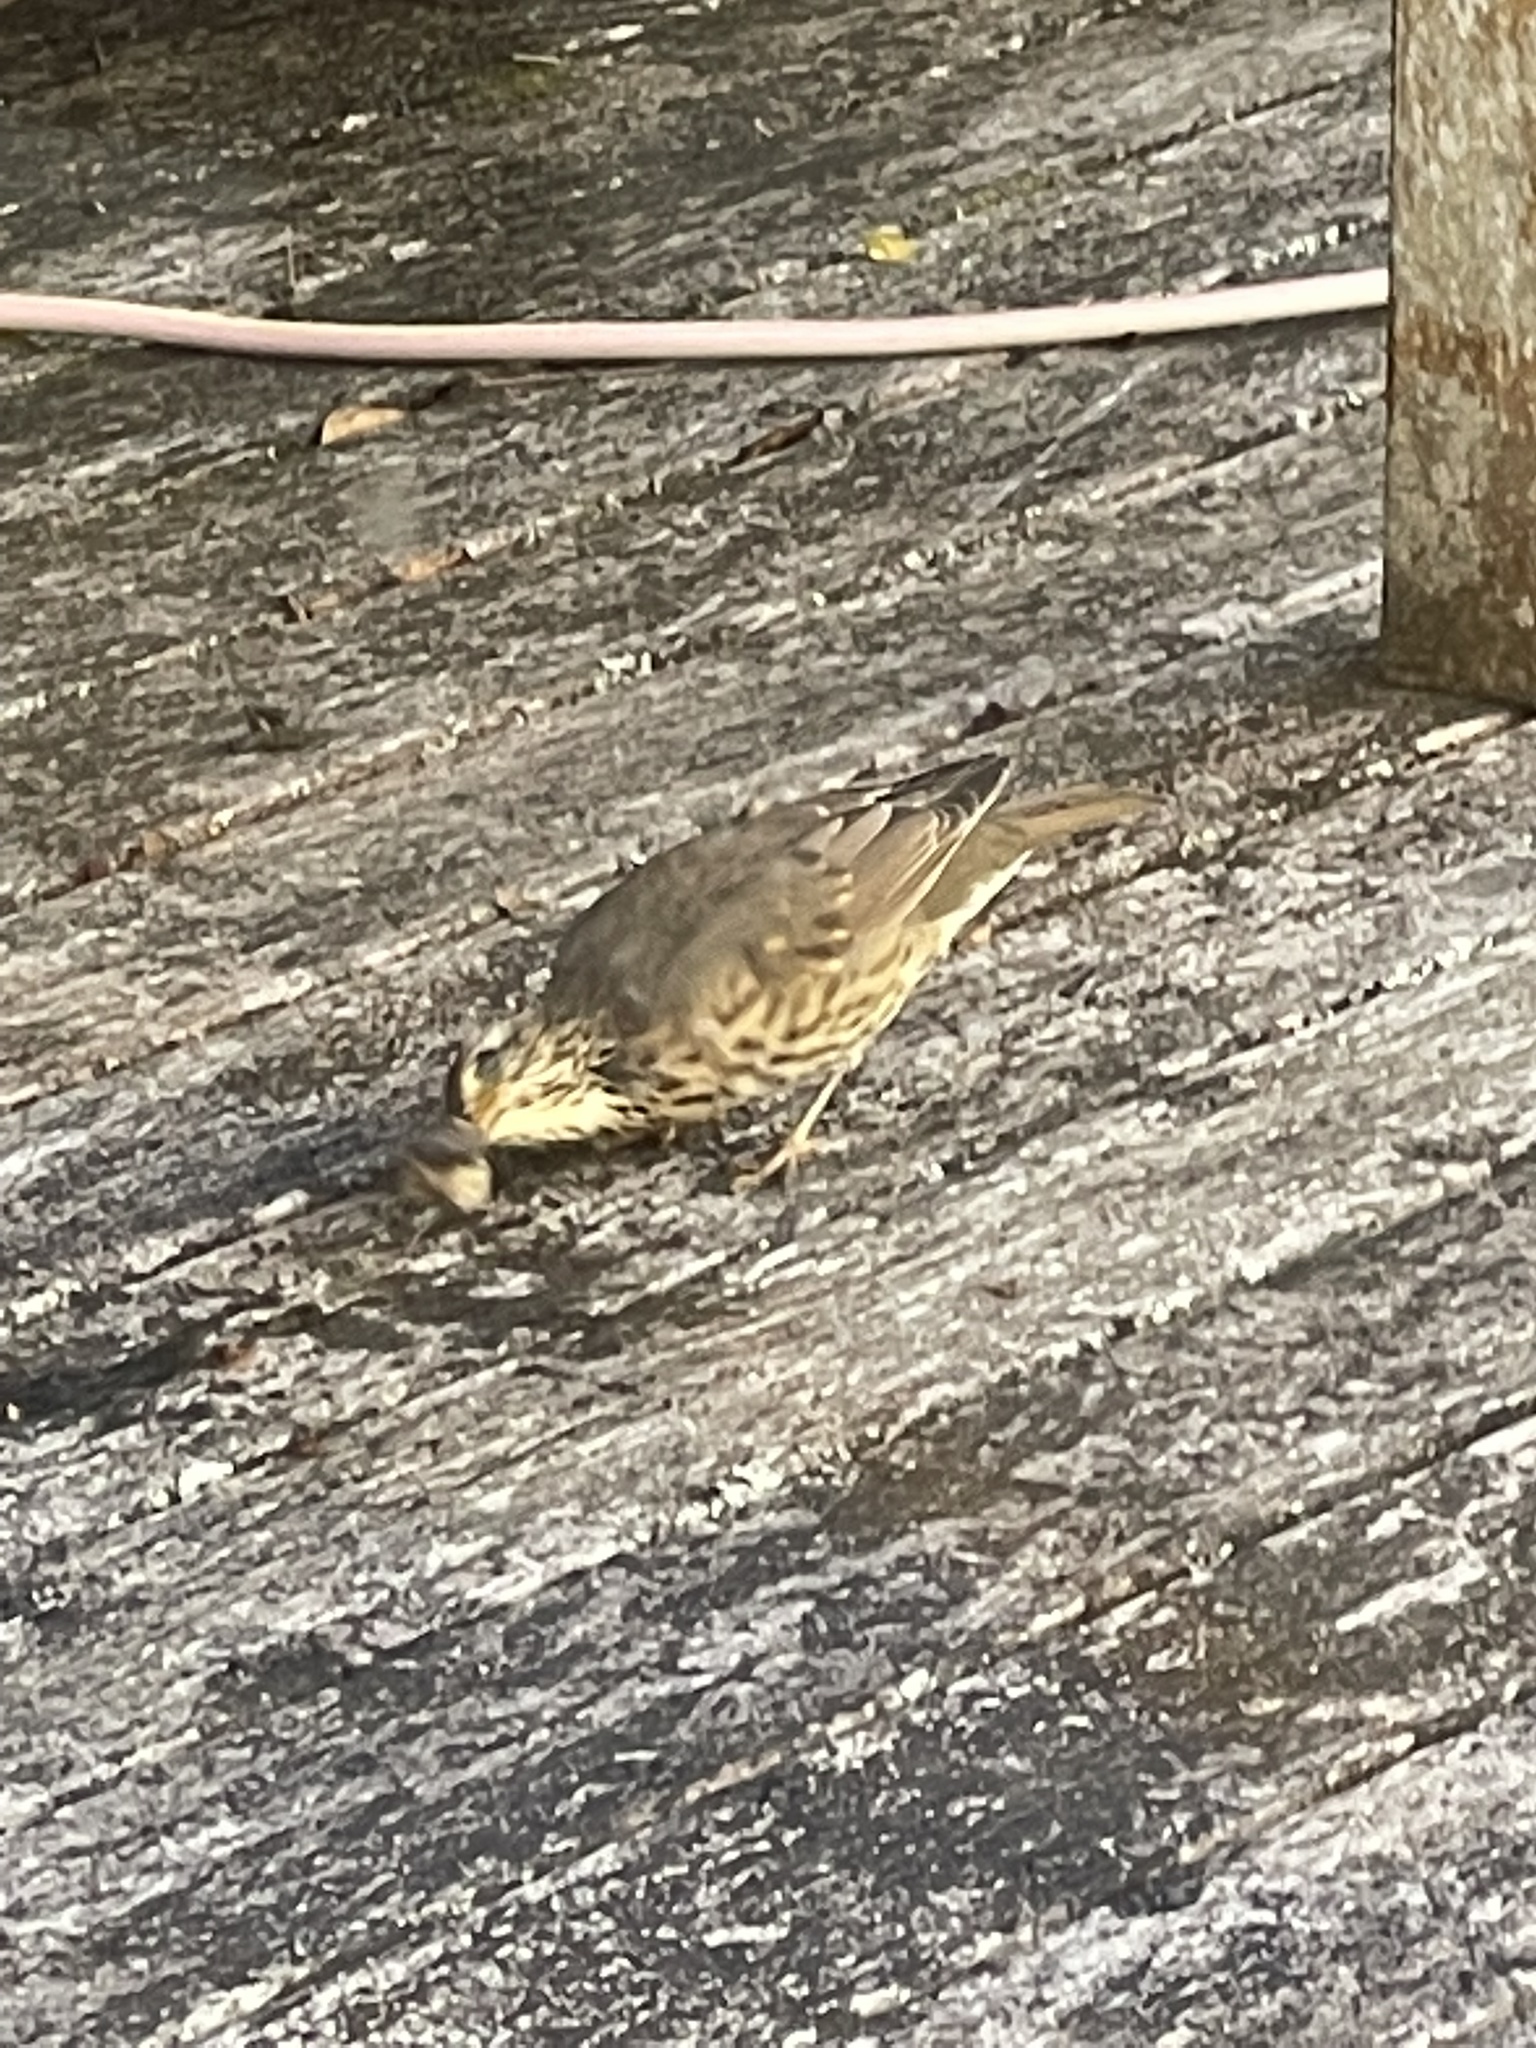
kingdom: Animalia
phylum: Chordata
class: Aves
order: Passeriformes
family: Turdidae
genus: Turdus
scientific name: Turdus philomelos
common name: Song thrush
